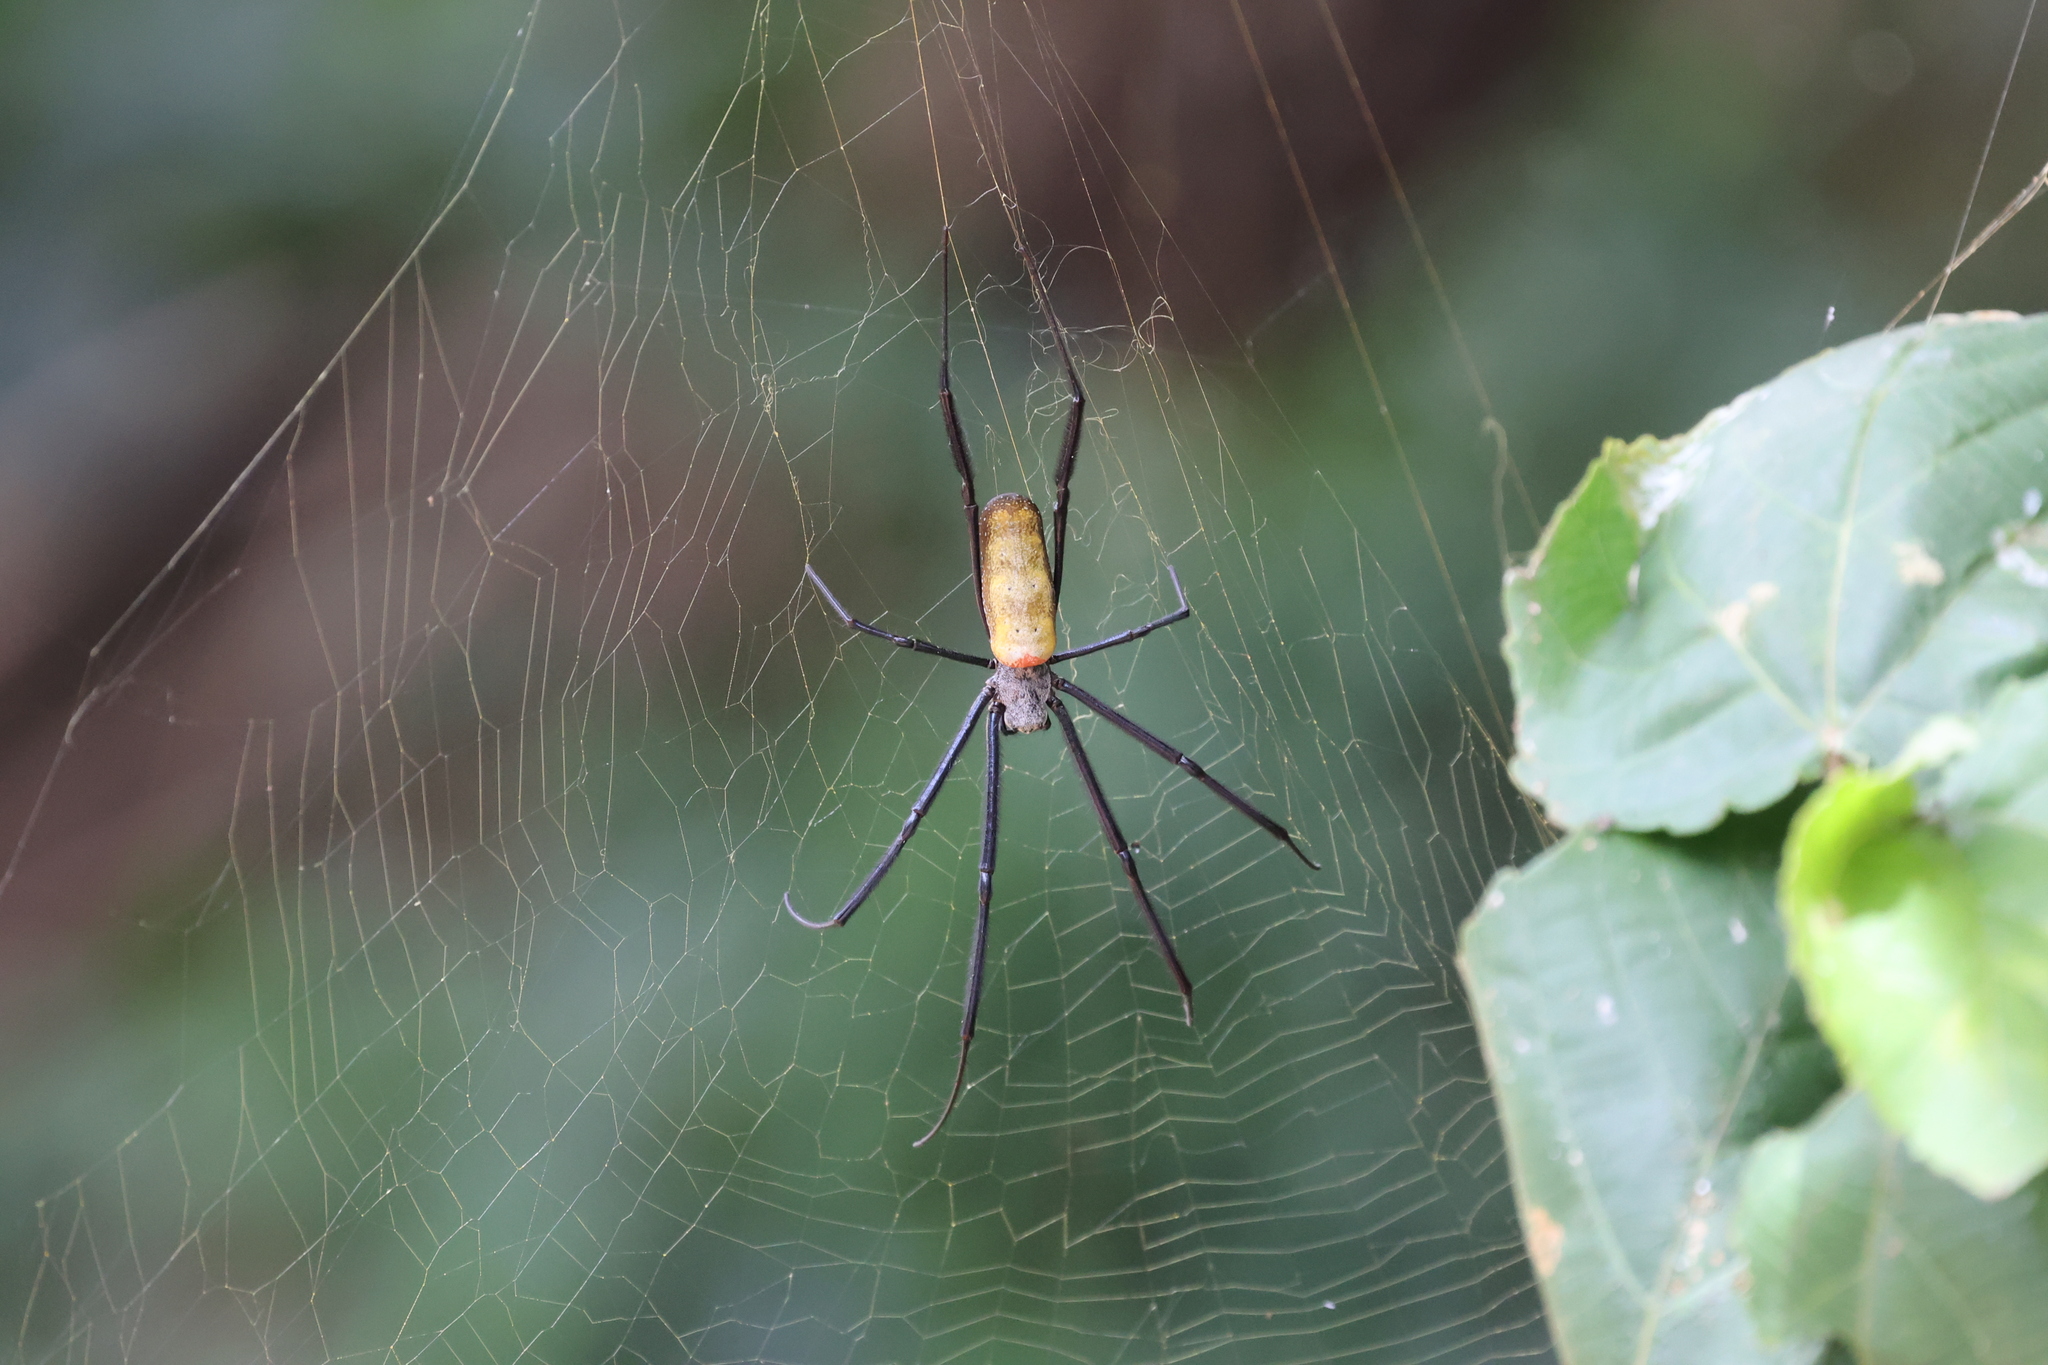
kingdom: Animalia
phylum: Arthropoda
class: Arachnida
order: Araneae
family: Araneidae
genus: Trichonephila
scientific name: Trichonephila fenestrata
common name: Hairy golden orb weaver
